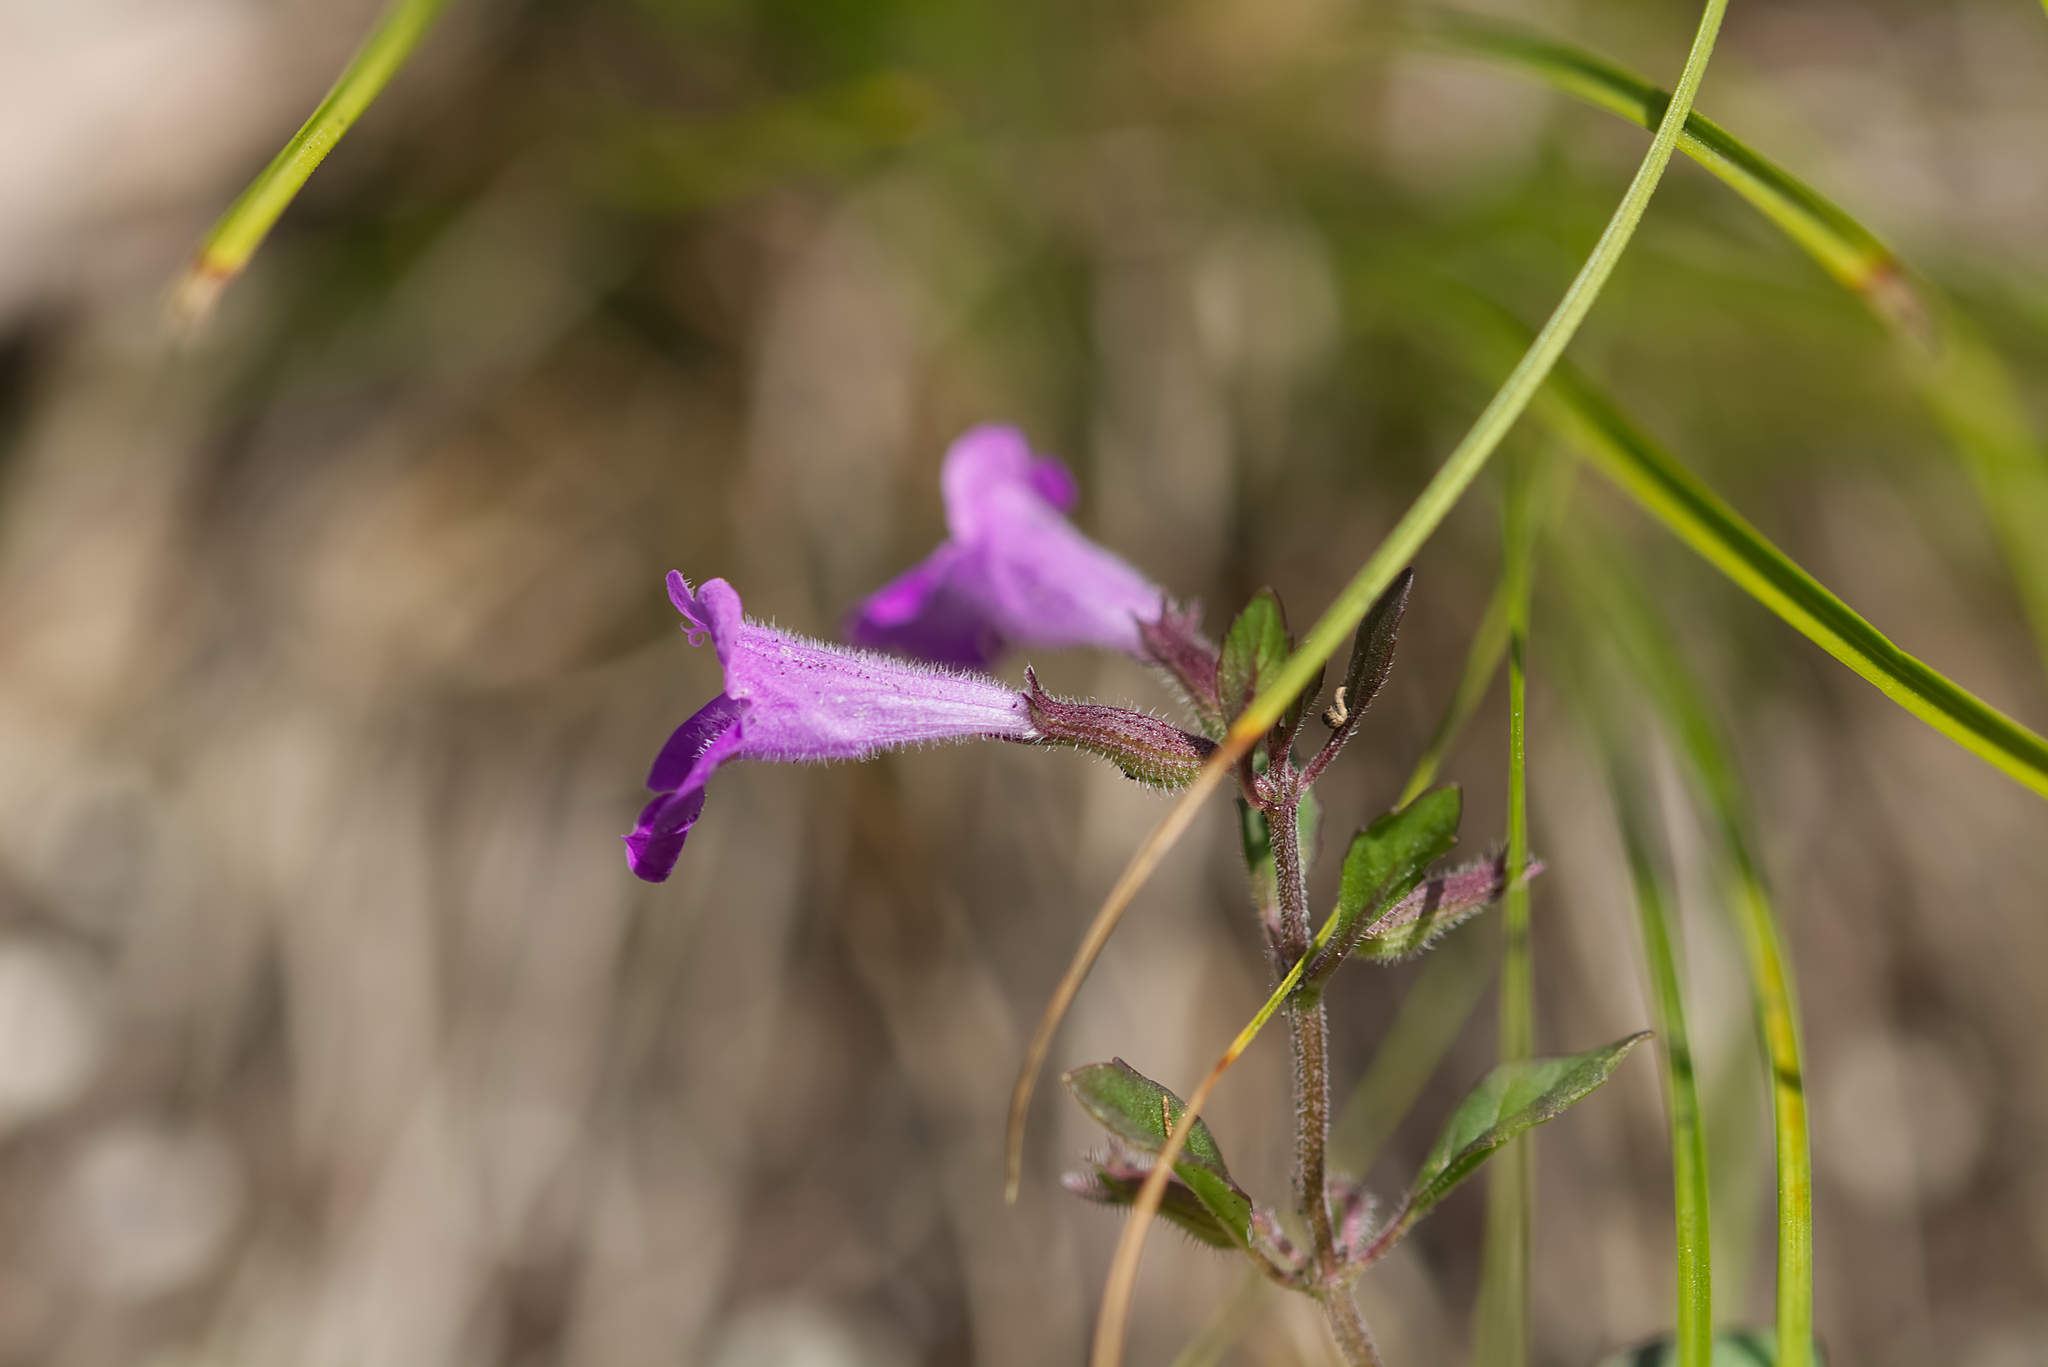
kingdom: Plantae
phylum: Tracheophyta
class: Magnoliopsida
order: Lamiales
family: Lamiaceae
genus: Clinopodium
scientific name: Clinopodium alpinum
